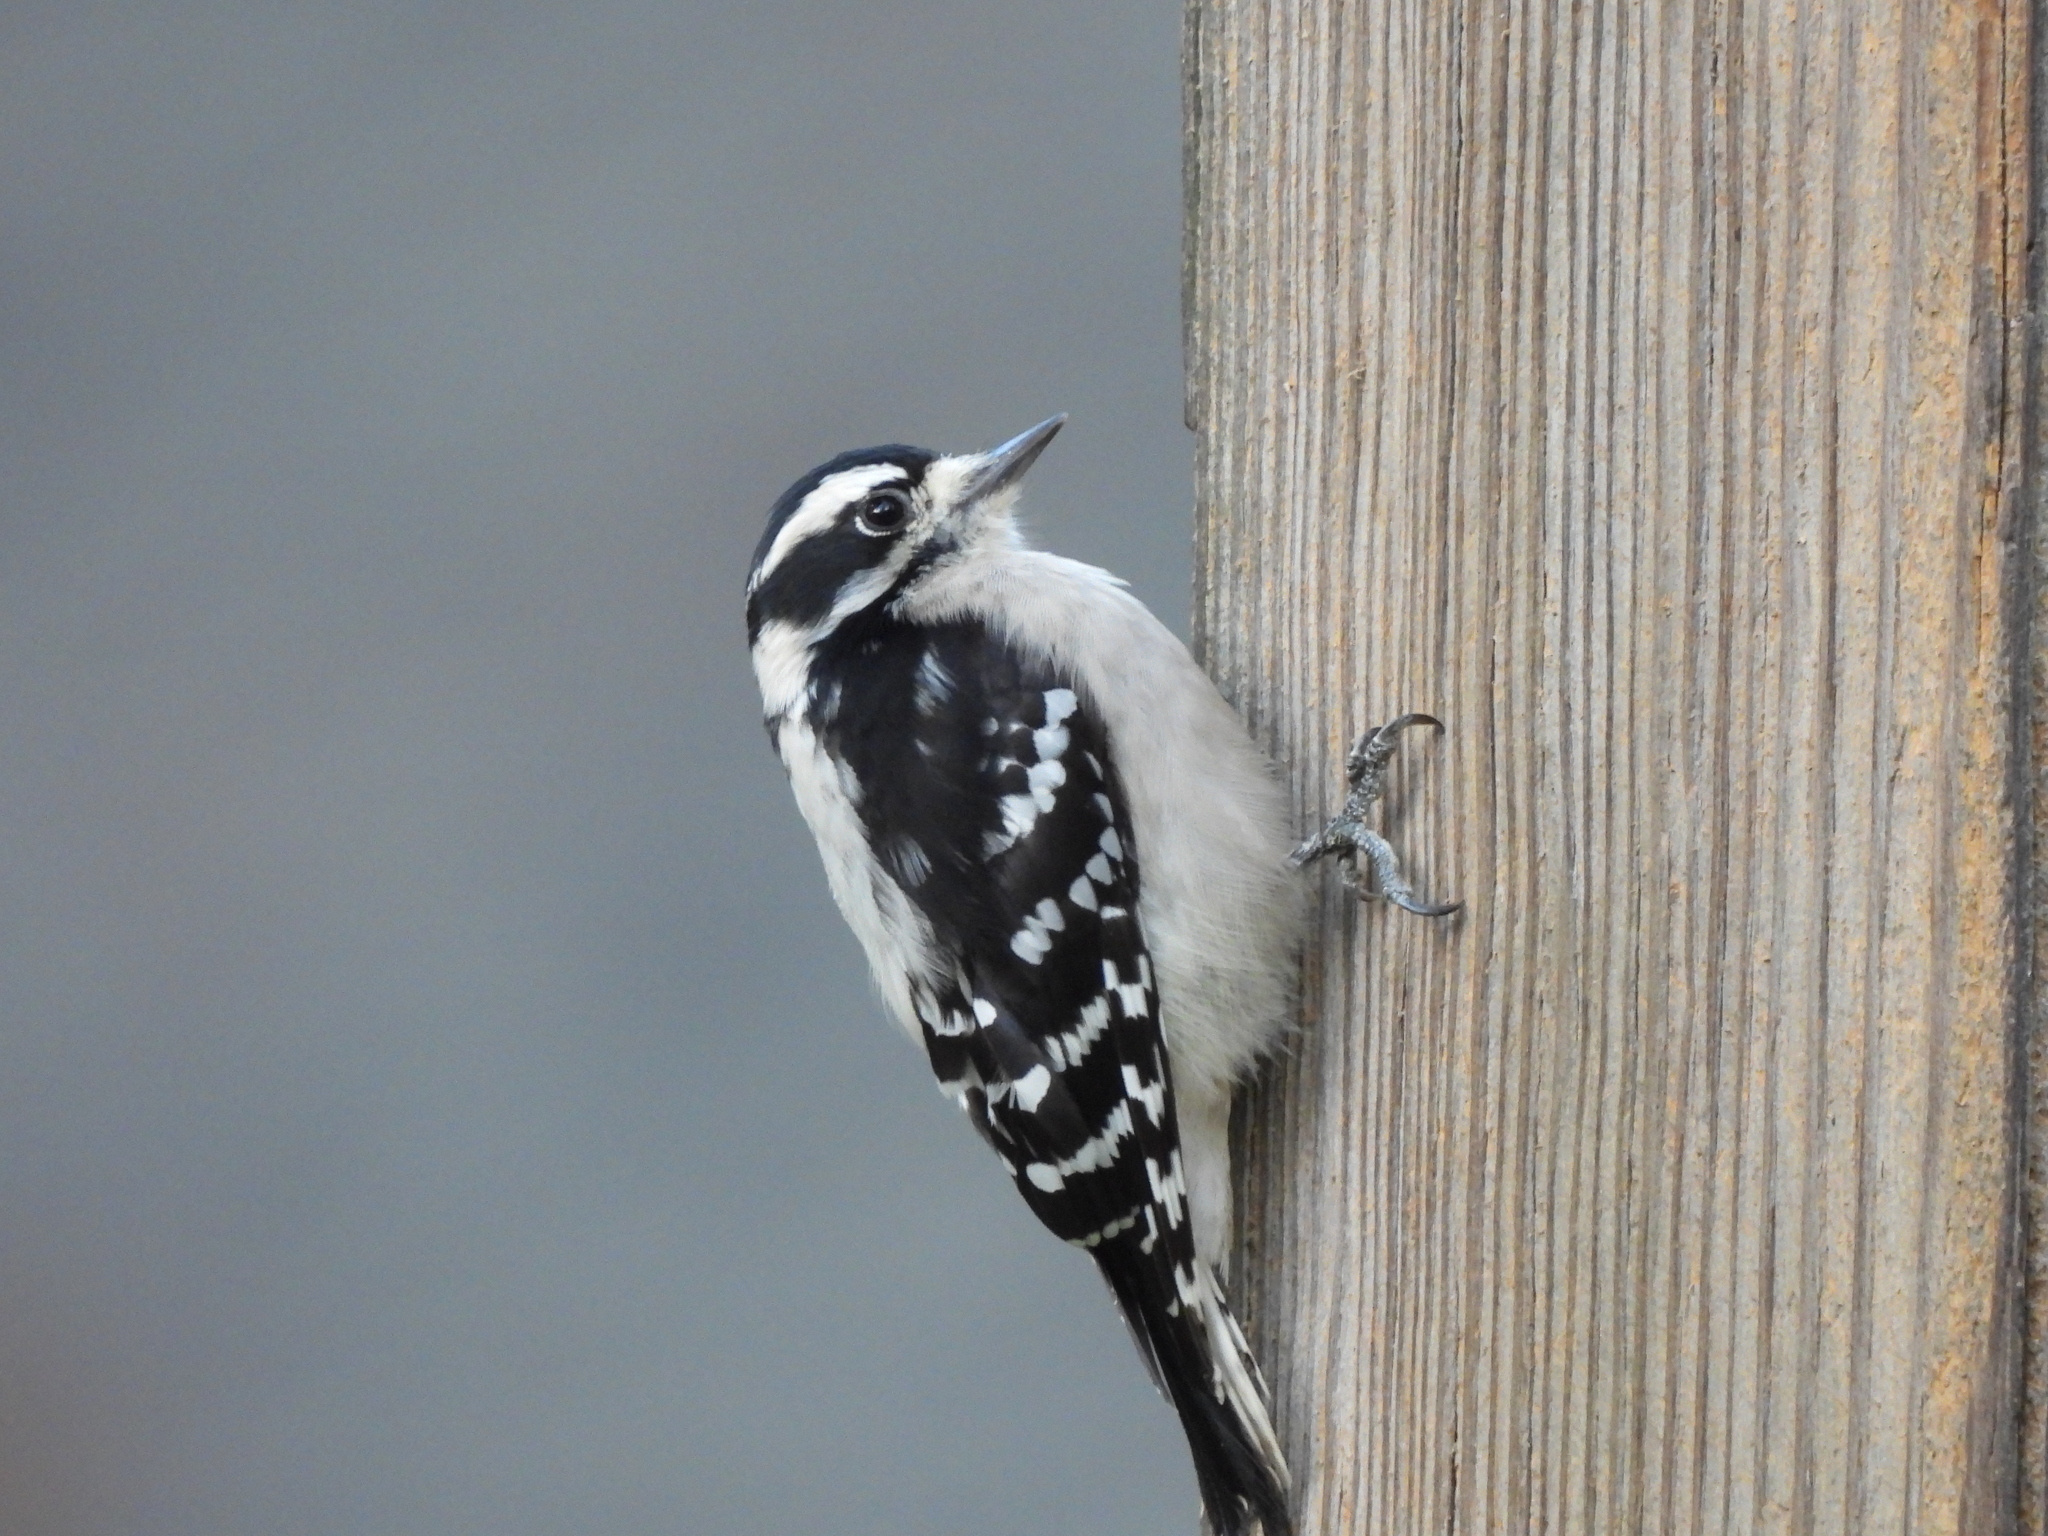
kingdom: Animalia
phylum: Chordata
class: Aves
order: Piciformes
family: Picidae
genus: Dryobates
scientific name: Dryobates pubescens
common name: Downy woodpecker
